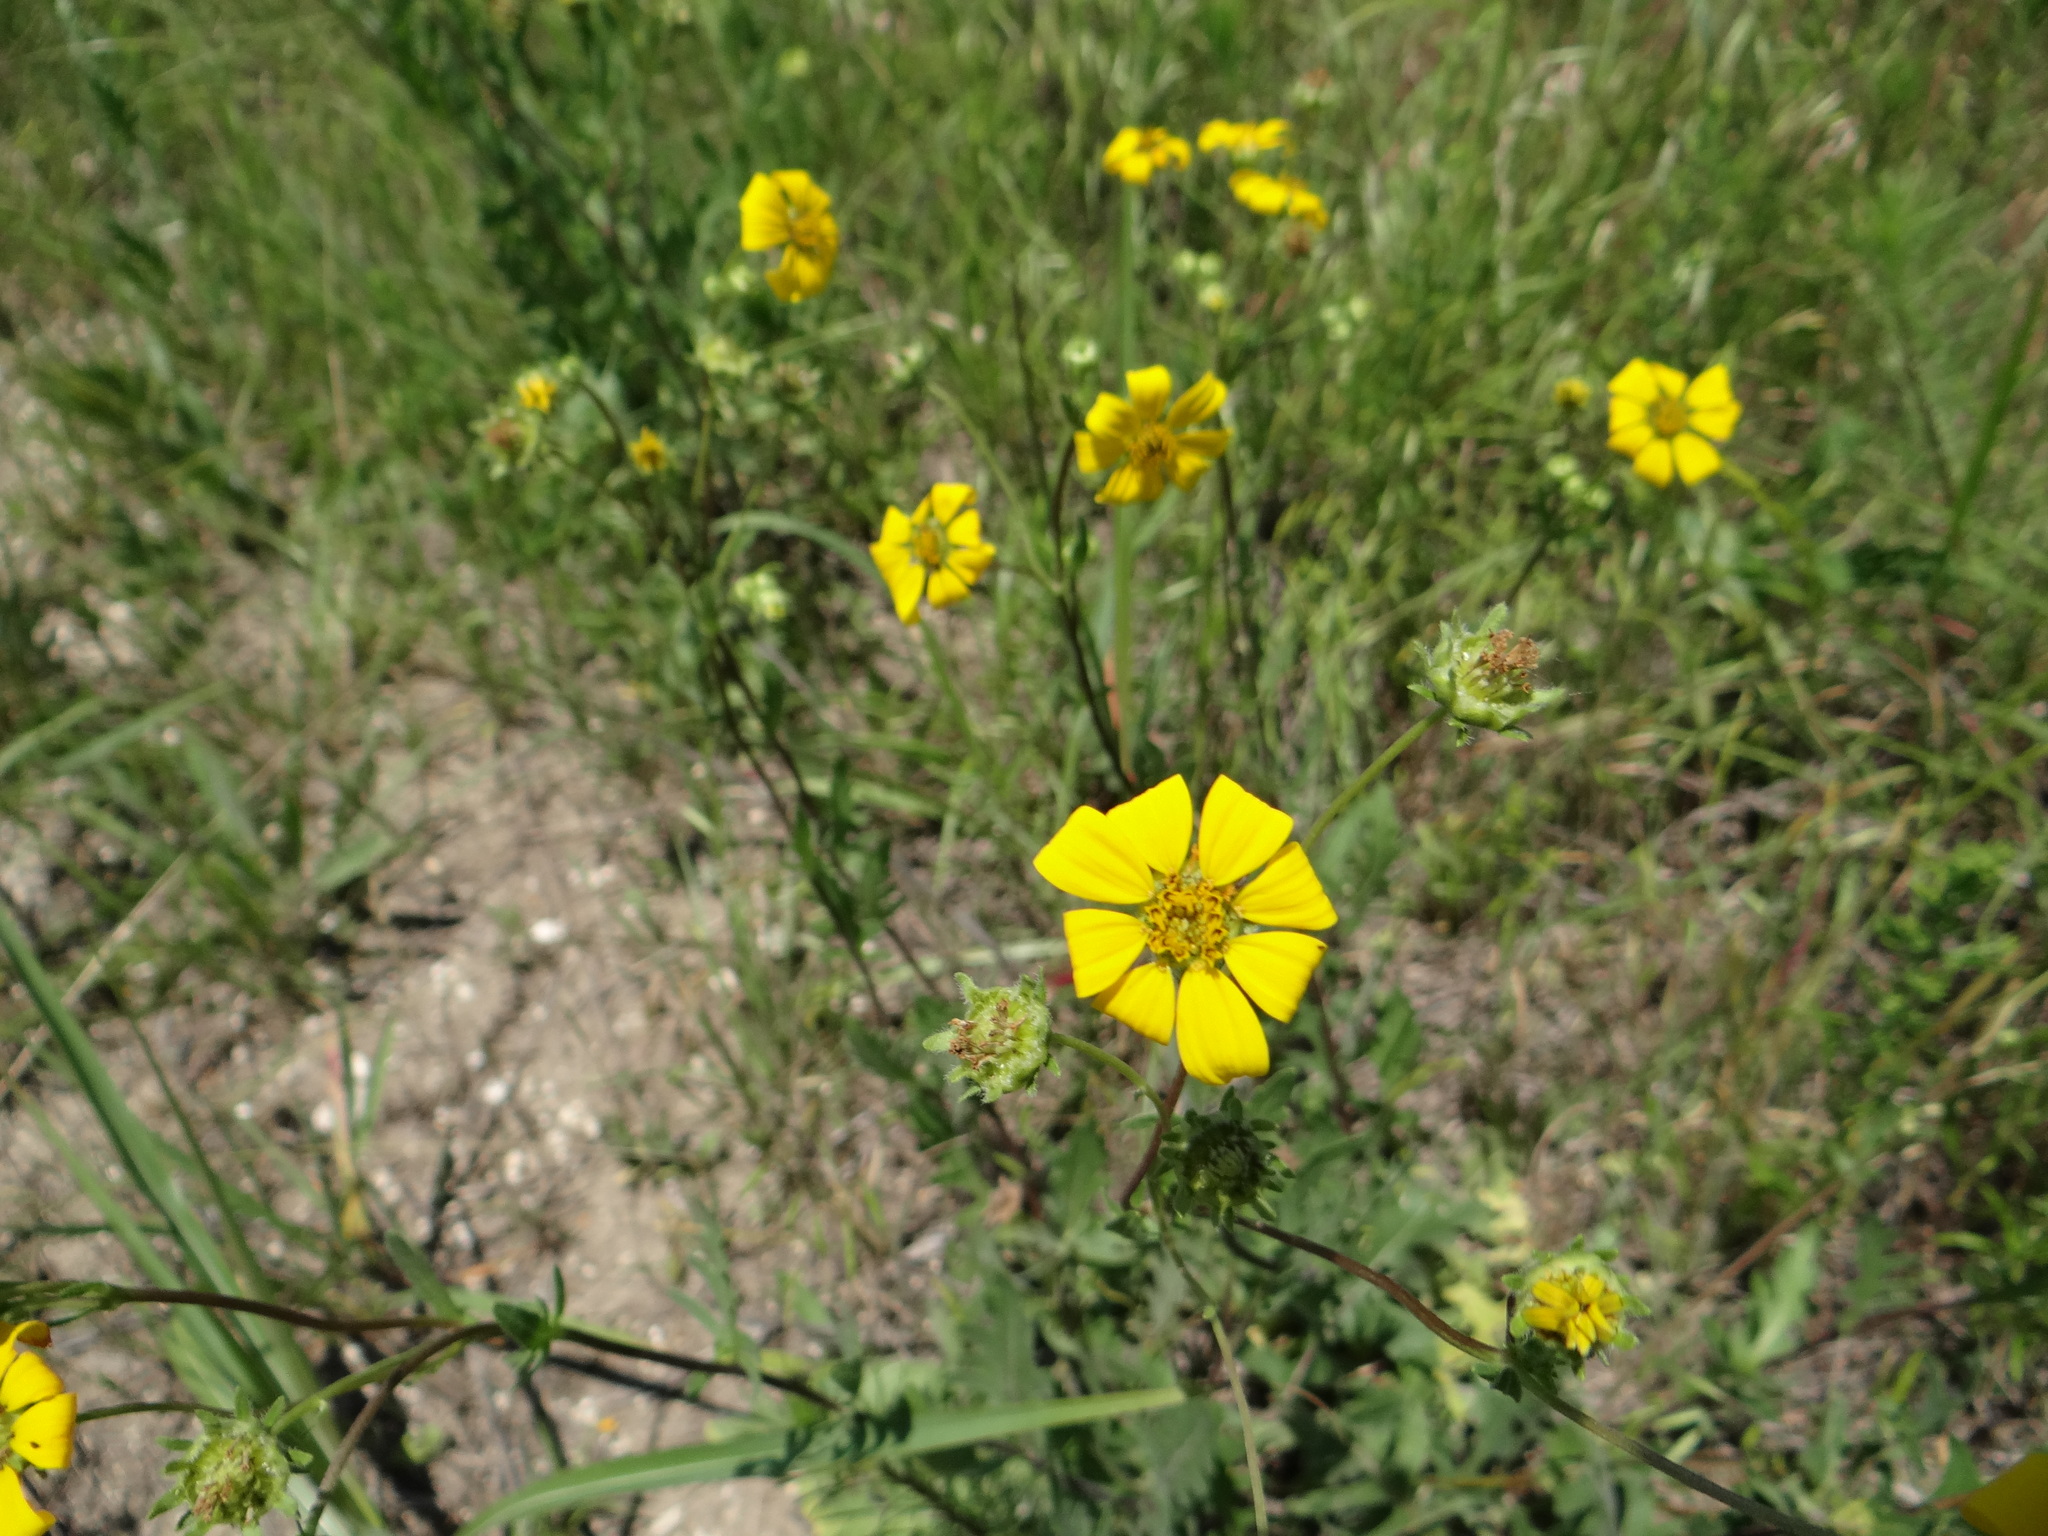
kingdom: Plantae
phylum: Tracheophyta
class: Magnoliopsida
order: Asterales
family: Asteraceae
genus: Engelmannia
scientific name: Engelmannia peristenia
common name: Engelmann's daisy
